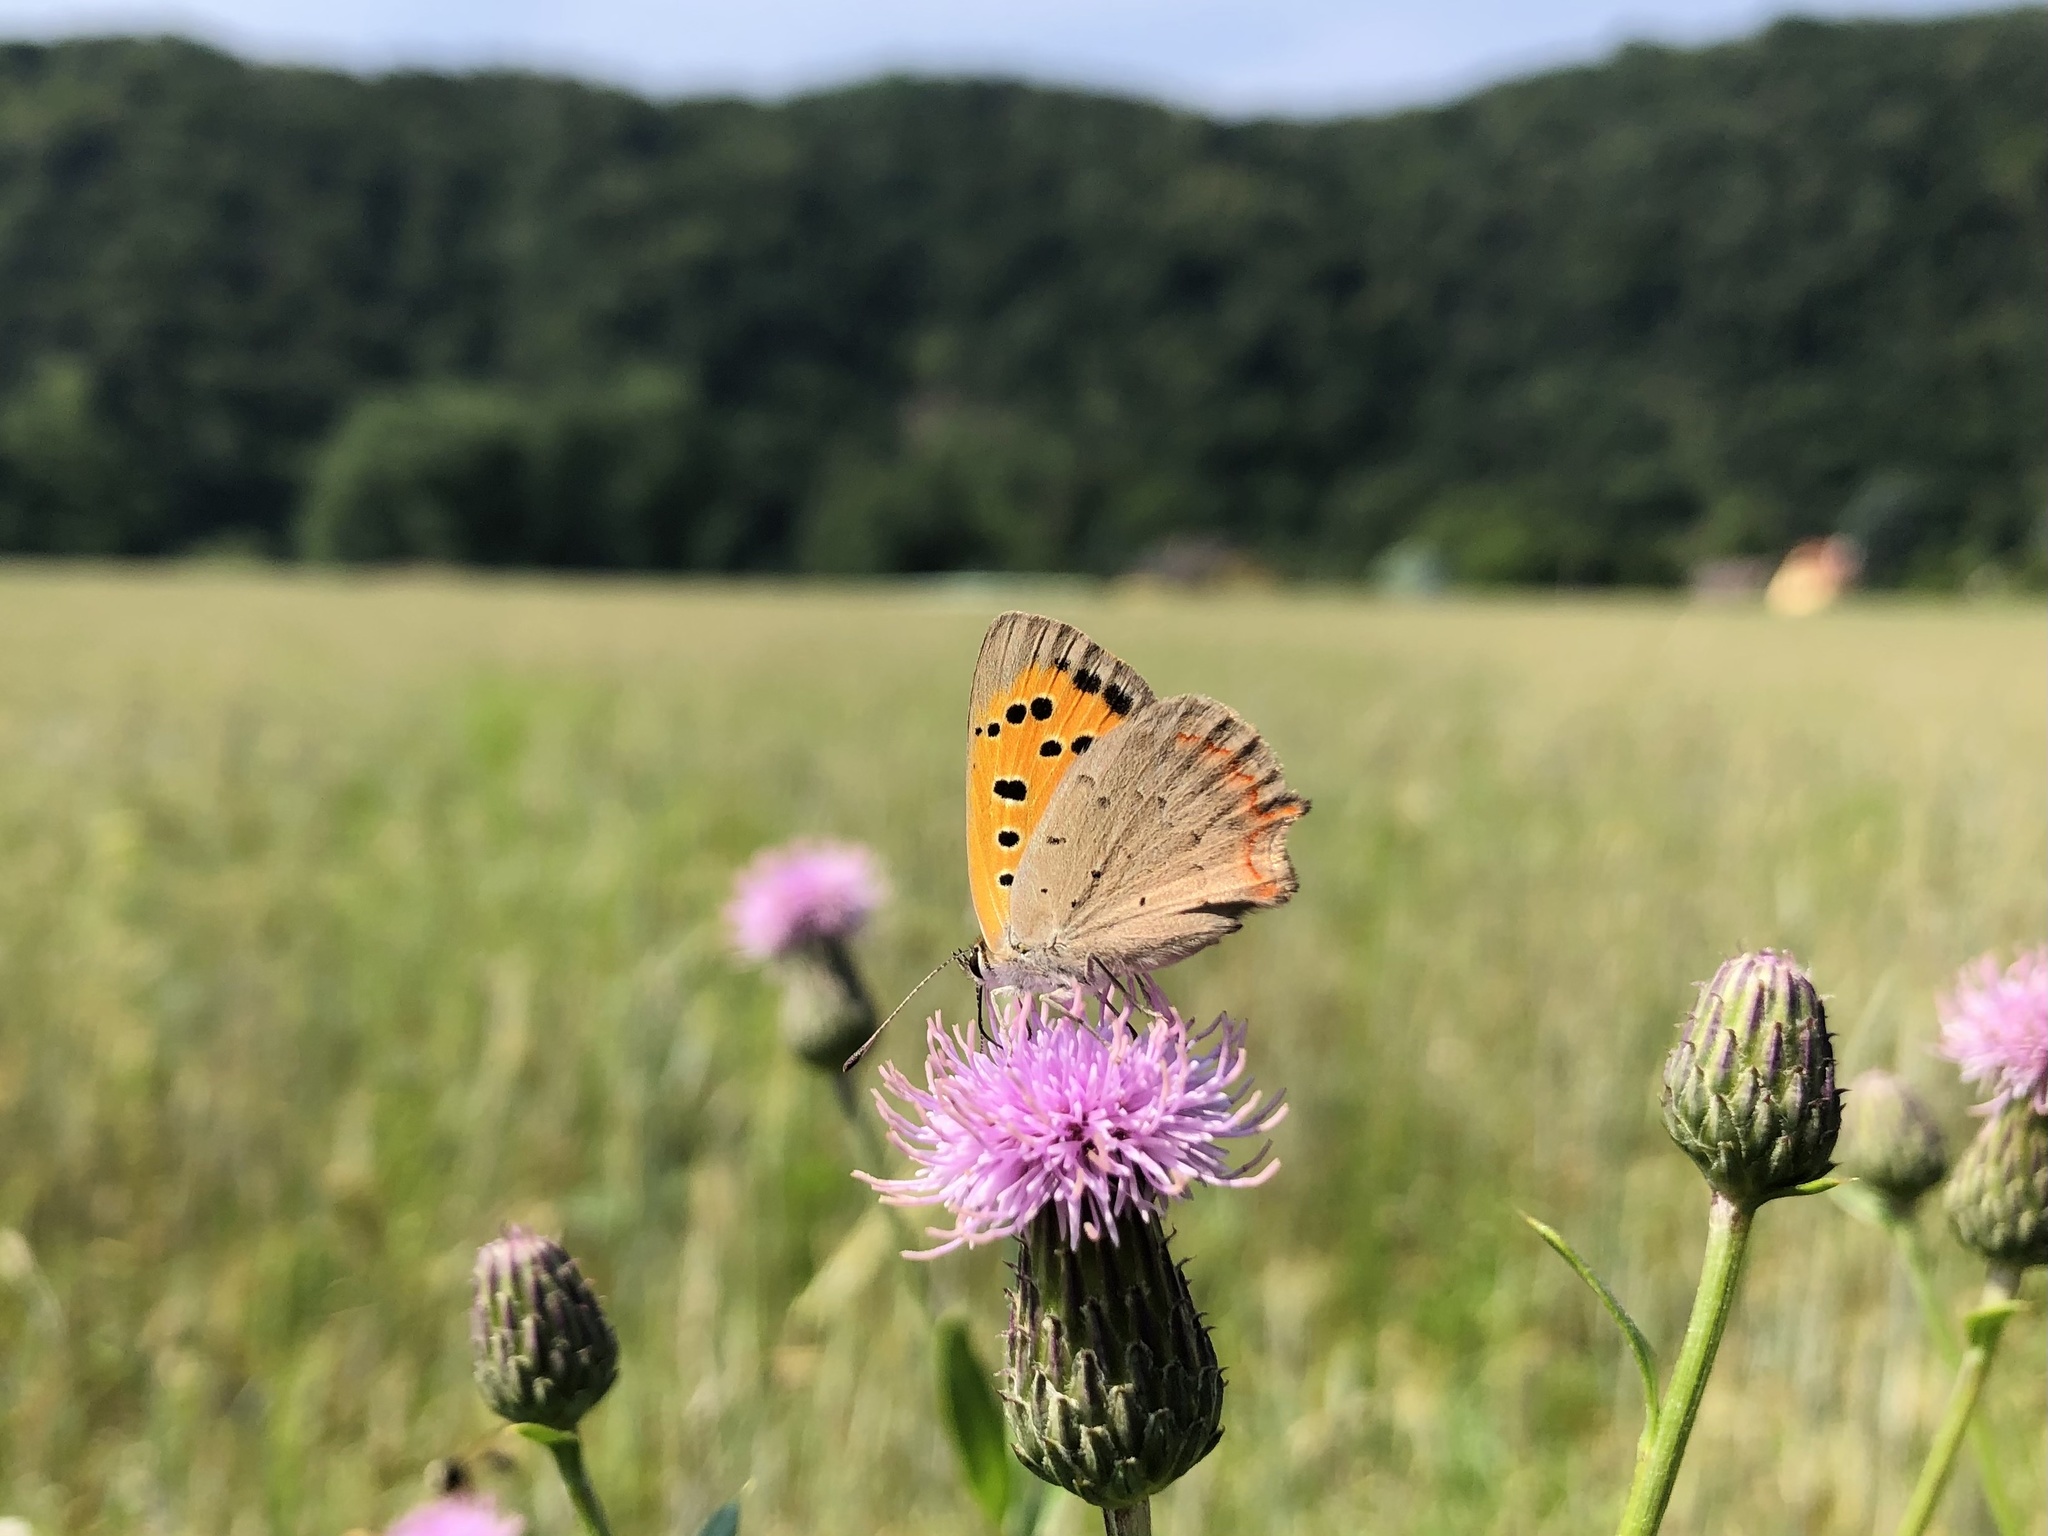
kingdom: Animalia
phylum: Arthropoda
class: Insecta
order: Lepidoptera
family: Lycaenidae
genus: Lycaena
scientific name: Lycaena phlaeas
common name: Small copper
